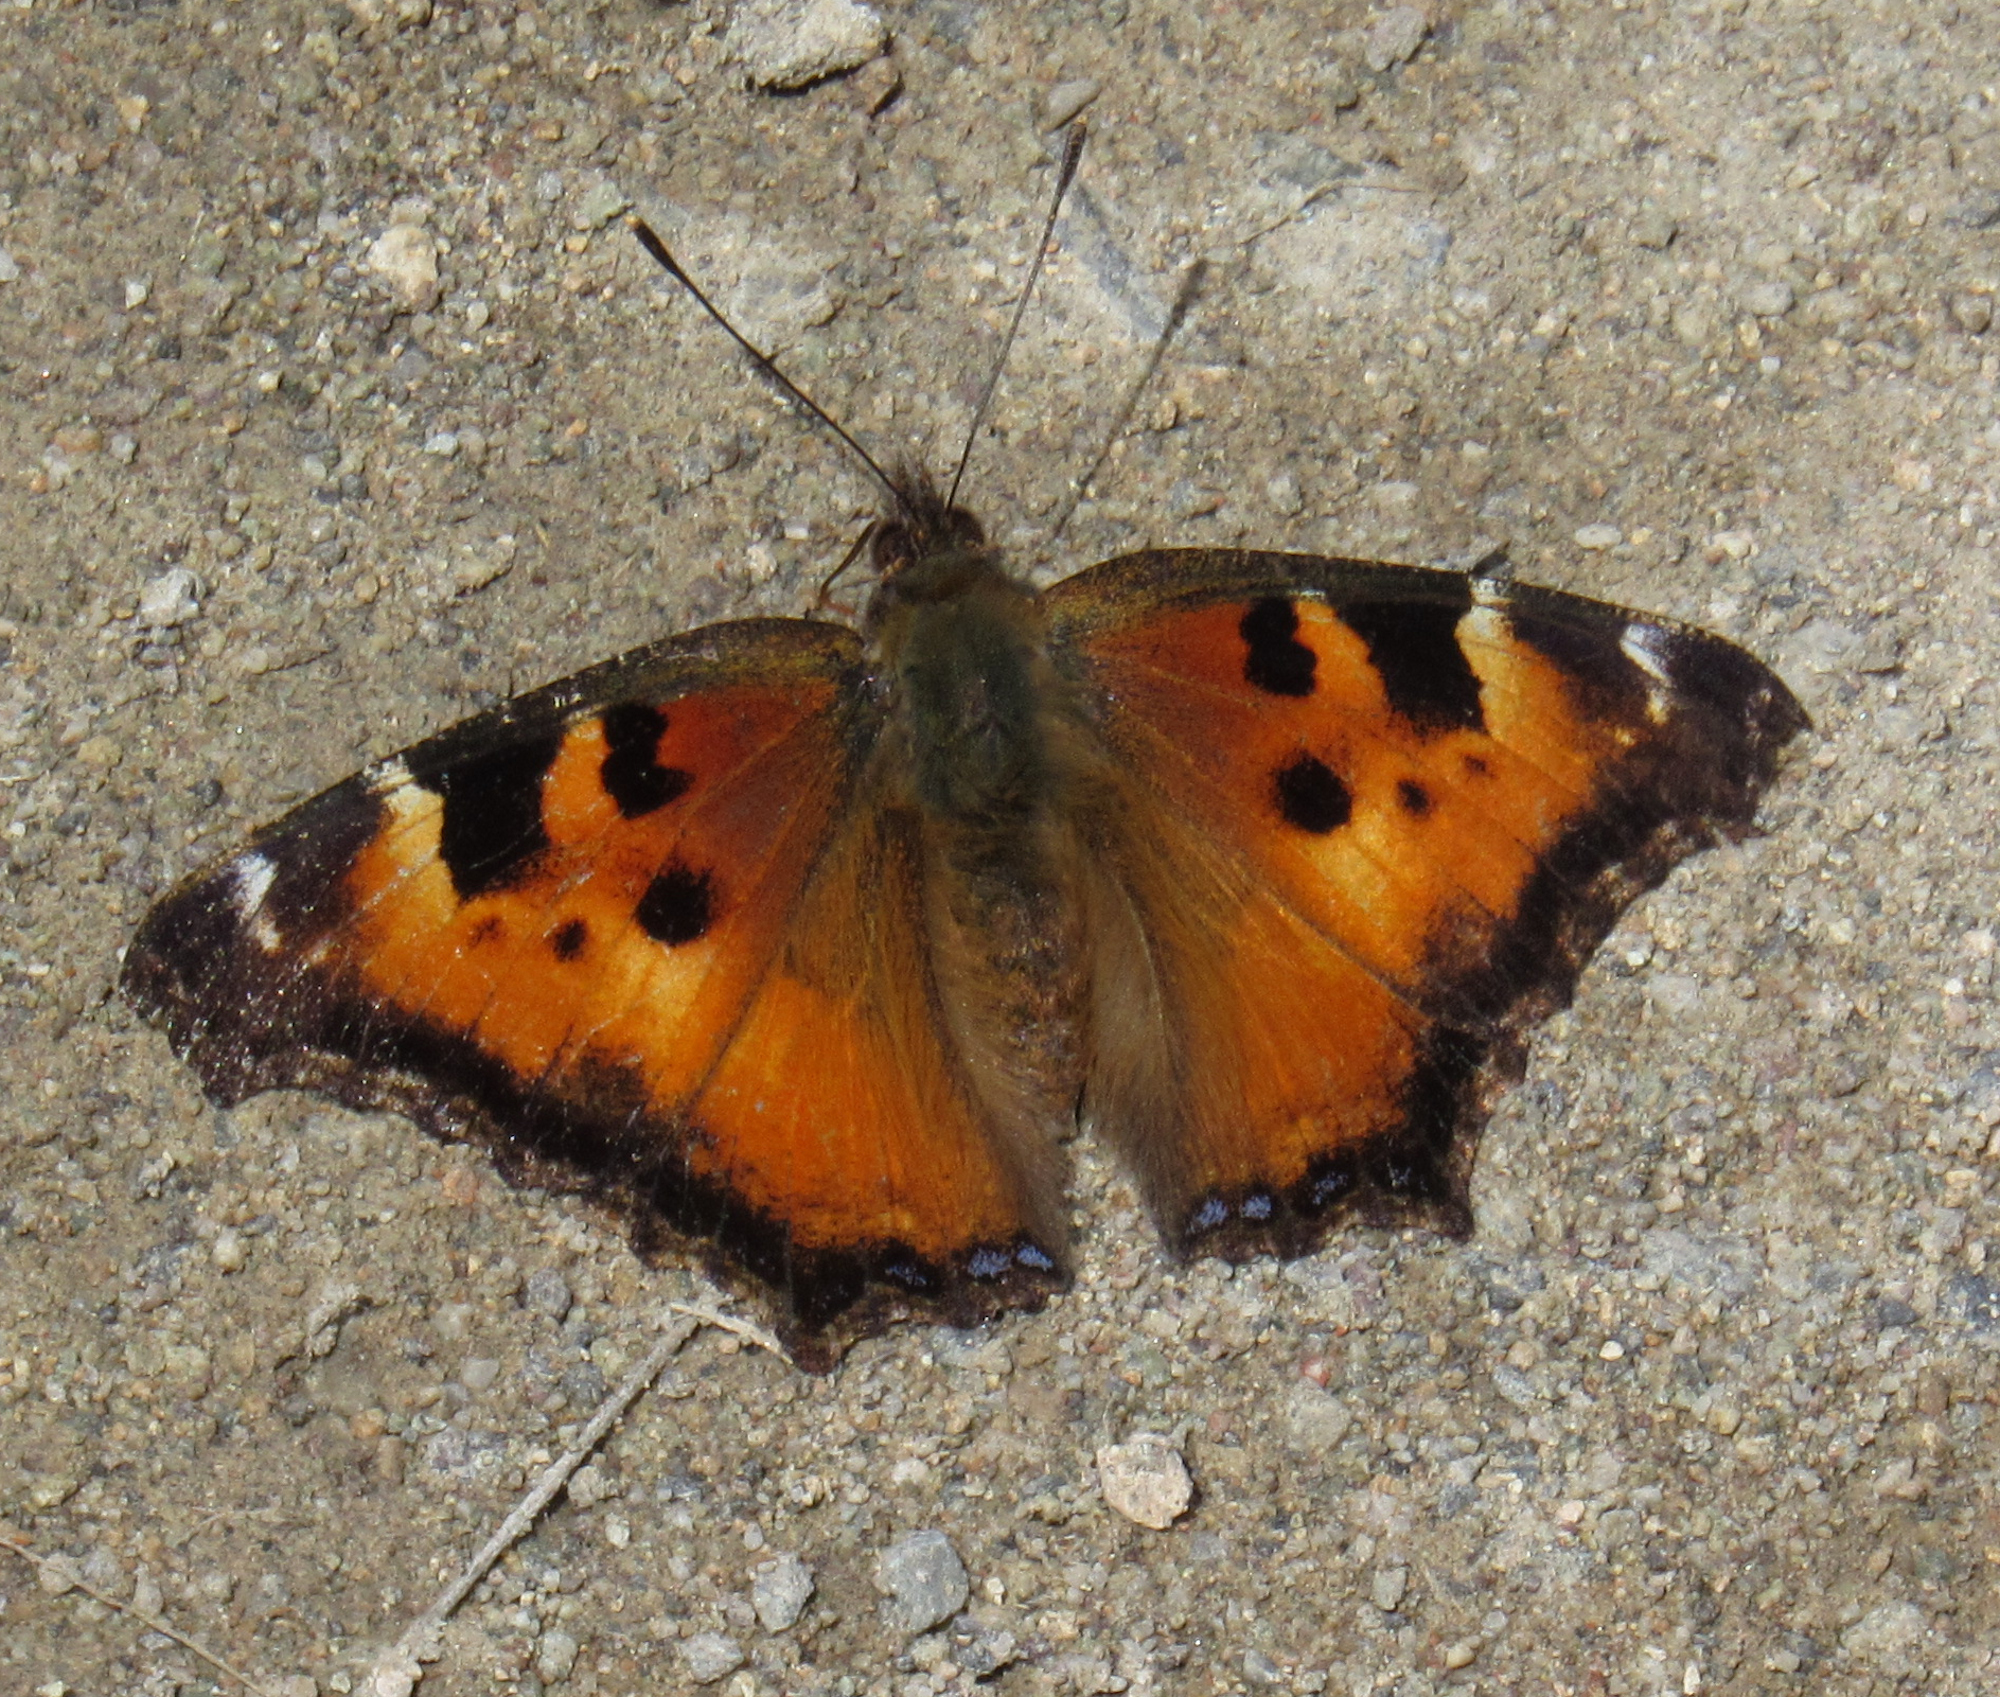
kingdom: Animalia
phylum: Arthropoda
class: Insecta
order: Lepidoptera
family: Nymphalidae
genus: Nymphalis
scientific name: Nymphalis californica
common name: California tortoiseshell
